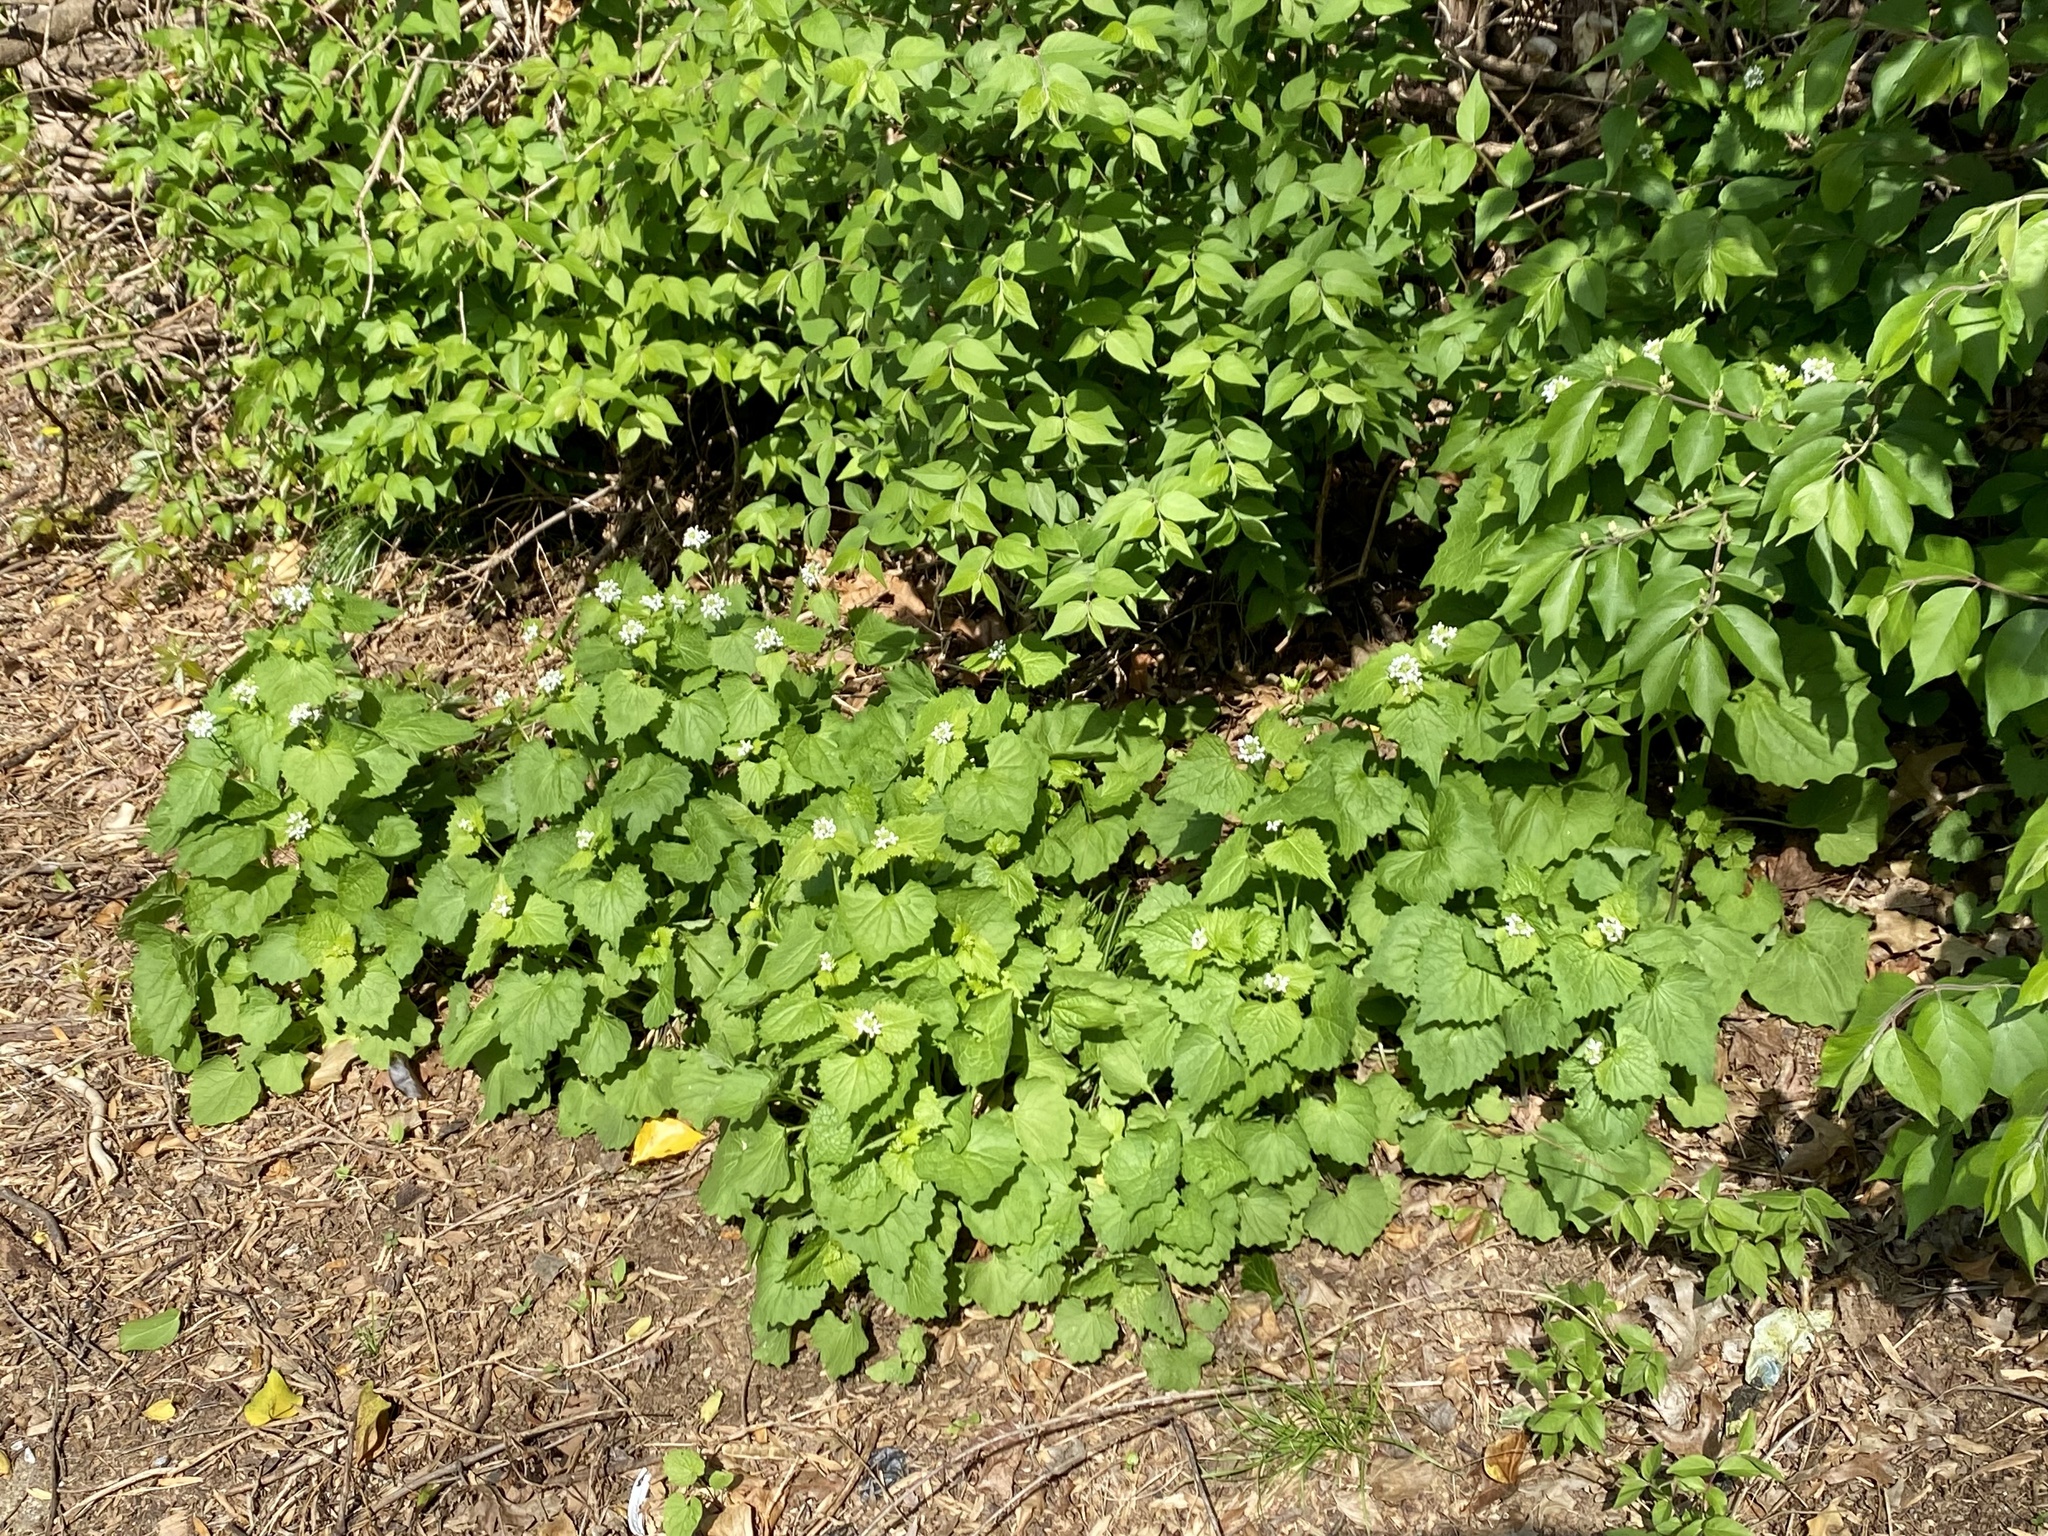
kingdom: Plantae
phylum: Tracheophyta
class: Magnoliopsida
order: Brassicales
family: Brassicaceae
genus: Alliaria
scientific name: Alliaria petiolata
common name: Garlic mustard
